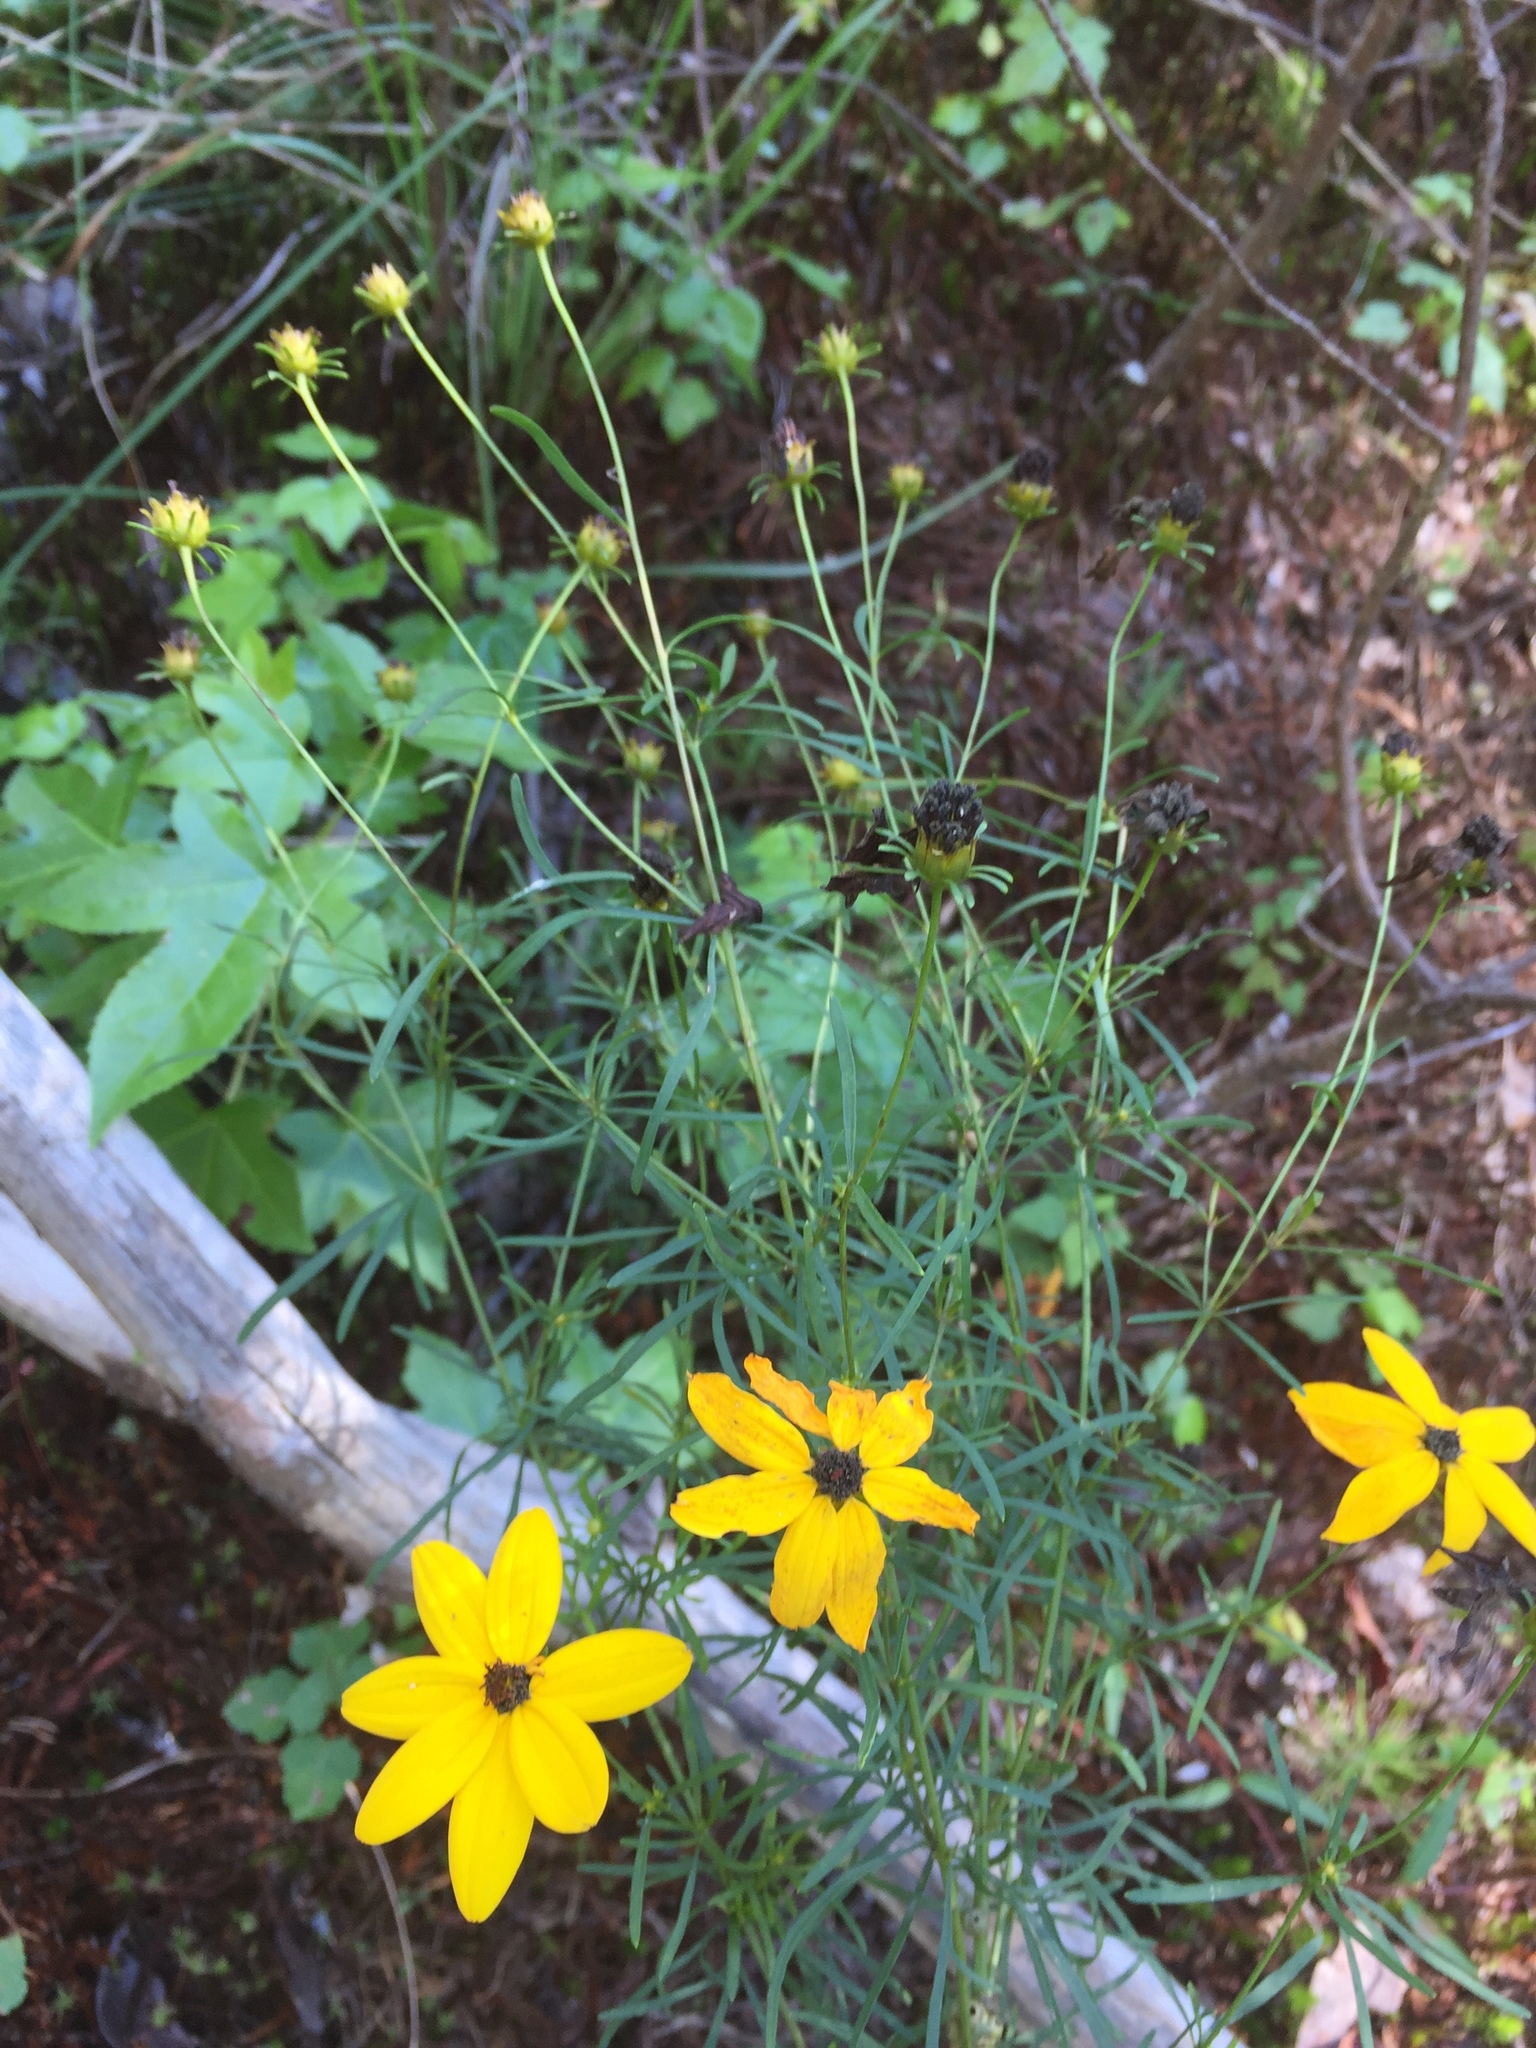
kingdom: Plantae
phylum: Tracheophyta
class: Magnoliopsida
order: Asterales
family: Asteraceae
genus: Coreopsis
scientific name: Coreopsis pulchra
